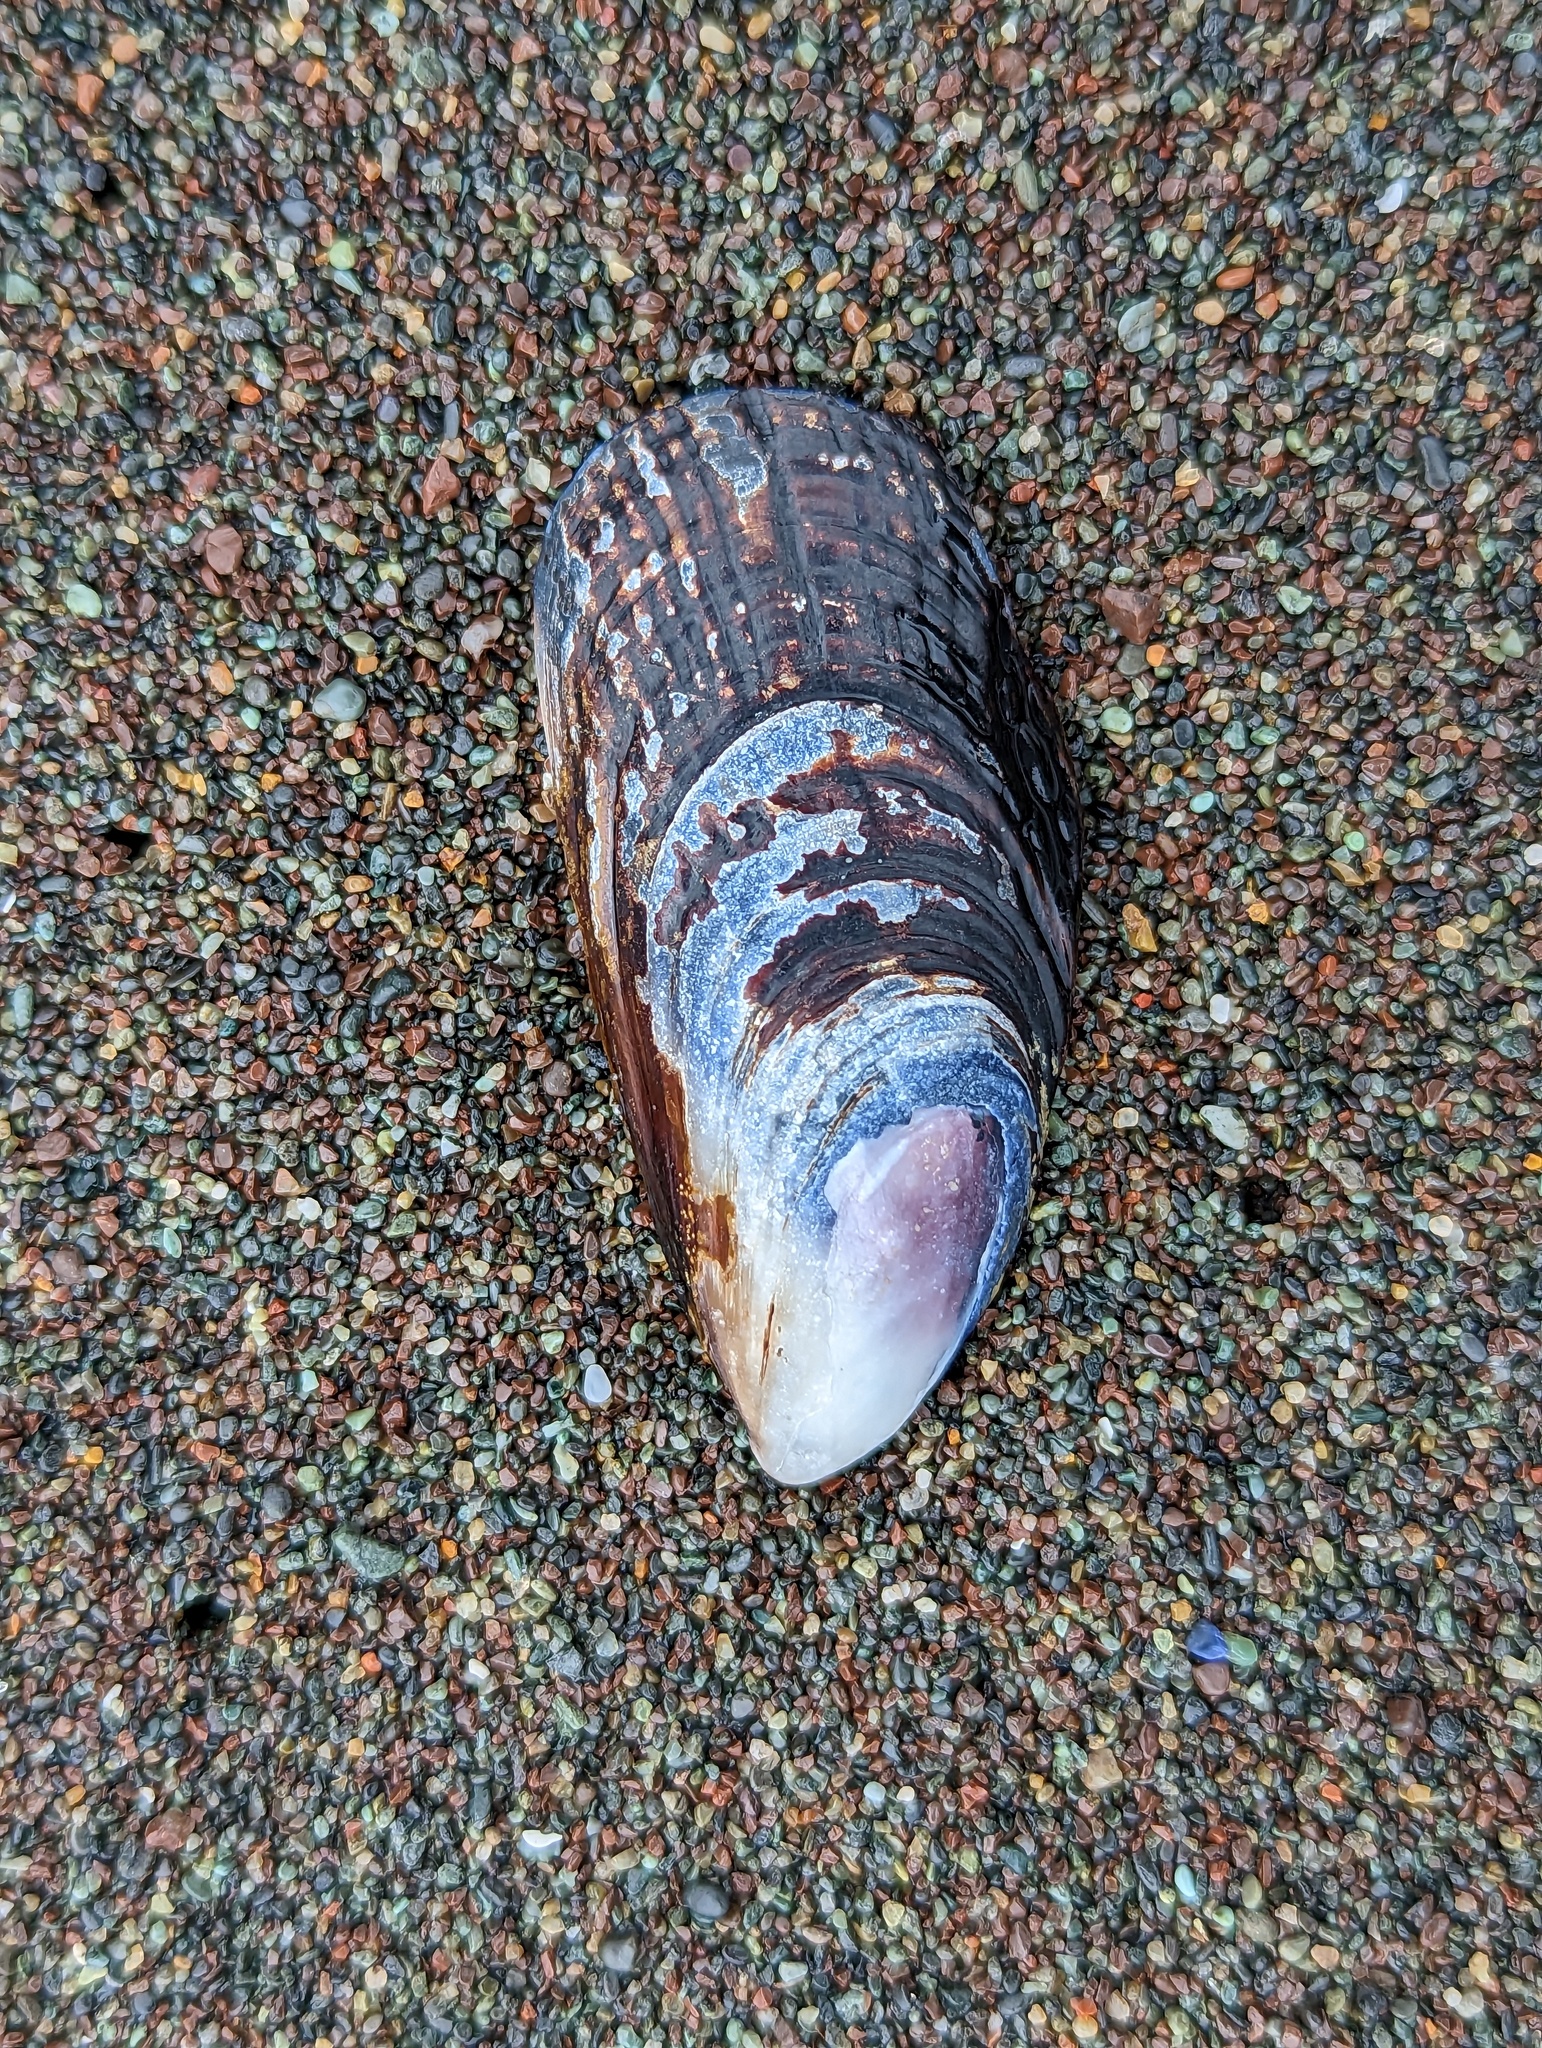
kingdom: Animalia
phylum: Mollusca
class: Bivalvia
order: Mytilida
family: Mytilidae
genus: Mytilus
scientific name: Mytilus californianus
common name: California mussel
